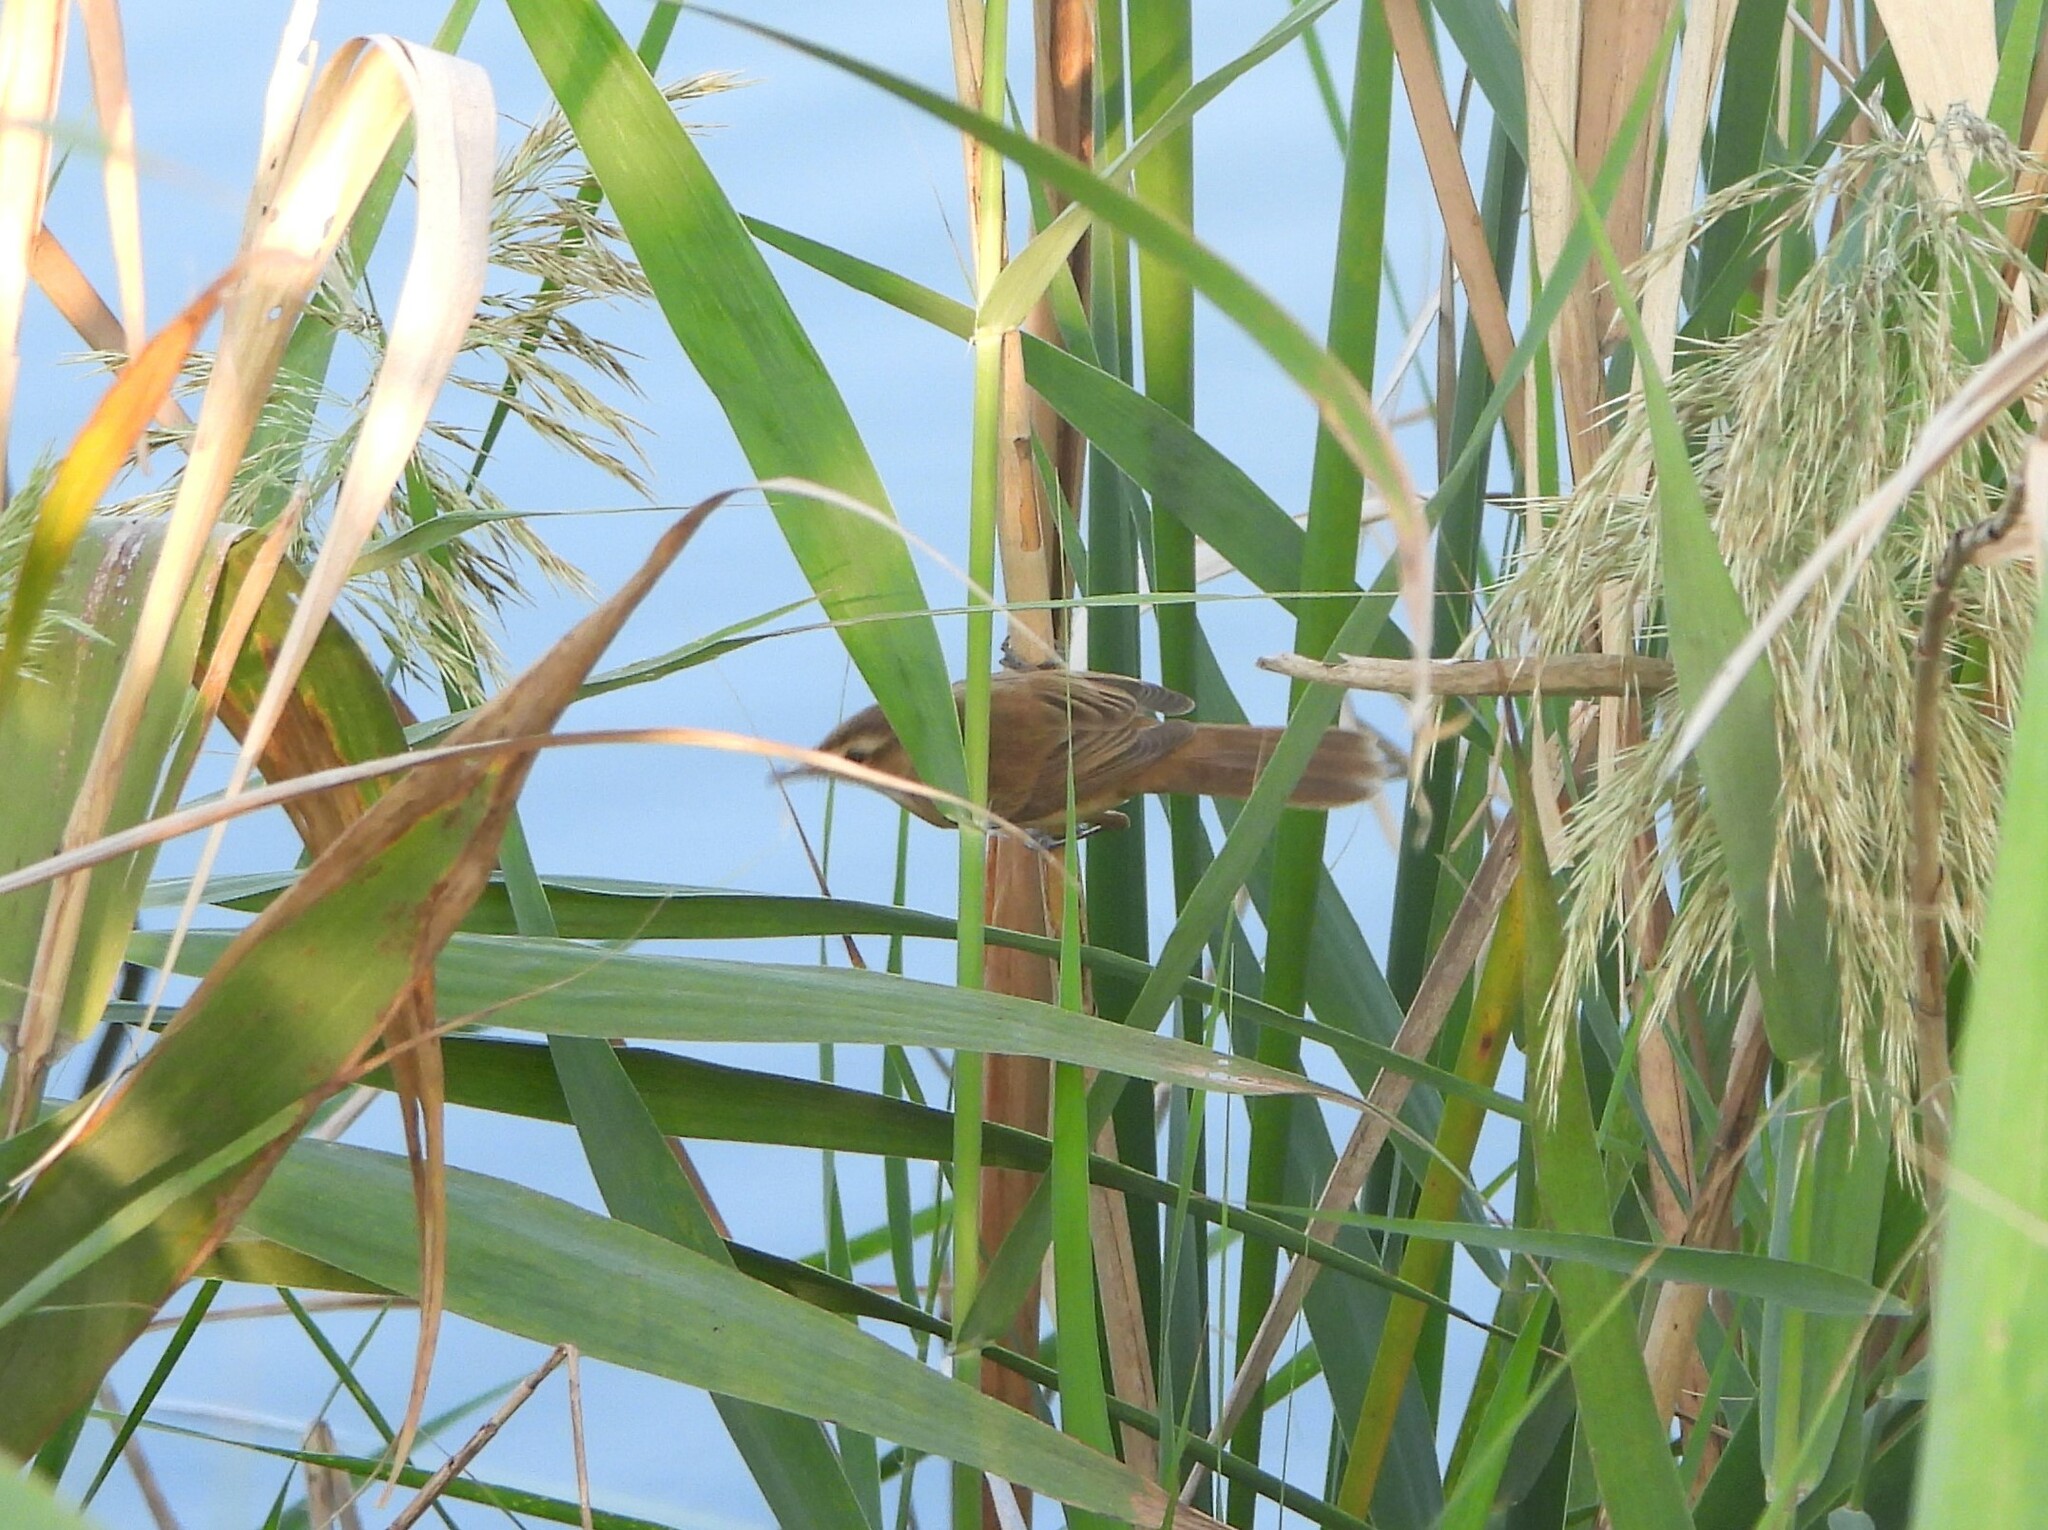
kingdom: Animalia
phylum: Chordata
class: Aves
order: Passeriformes
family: Acrocephalidae
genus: Acrocephalus
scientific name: Acrocephalus tangorum
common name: Manchurian reed warbler
